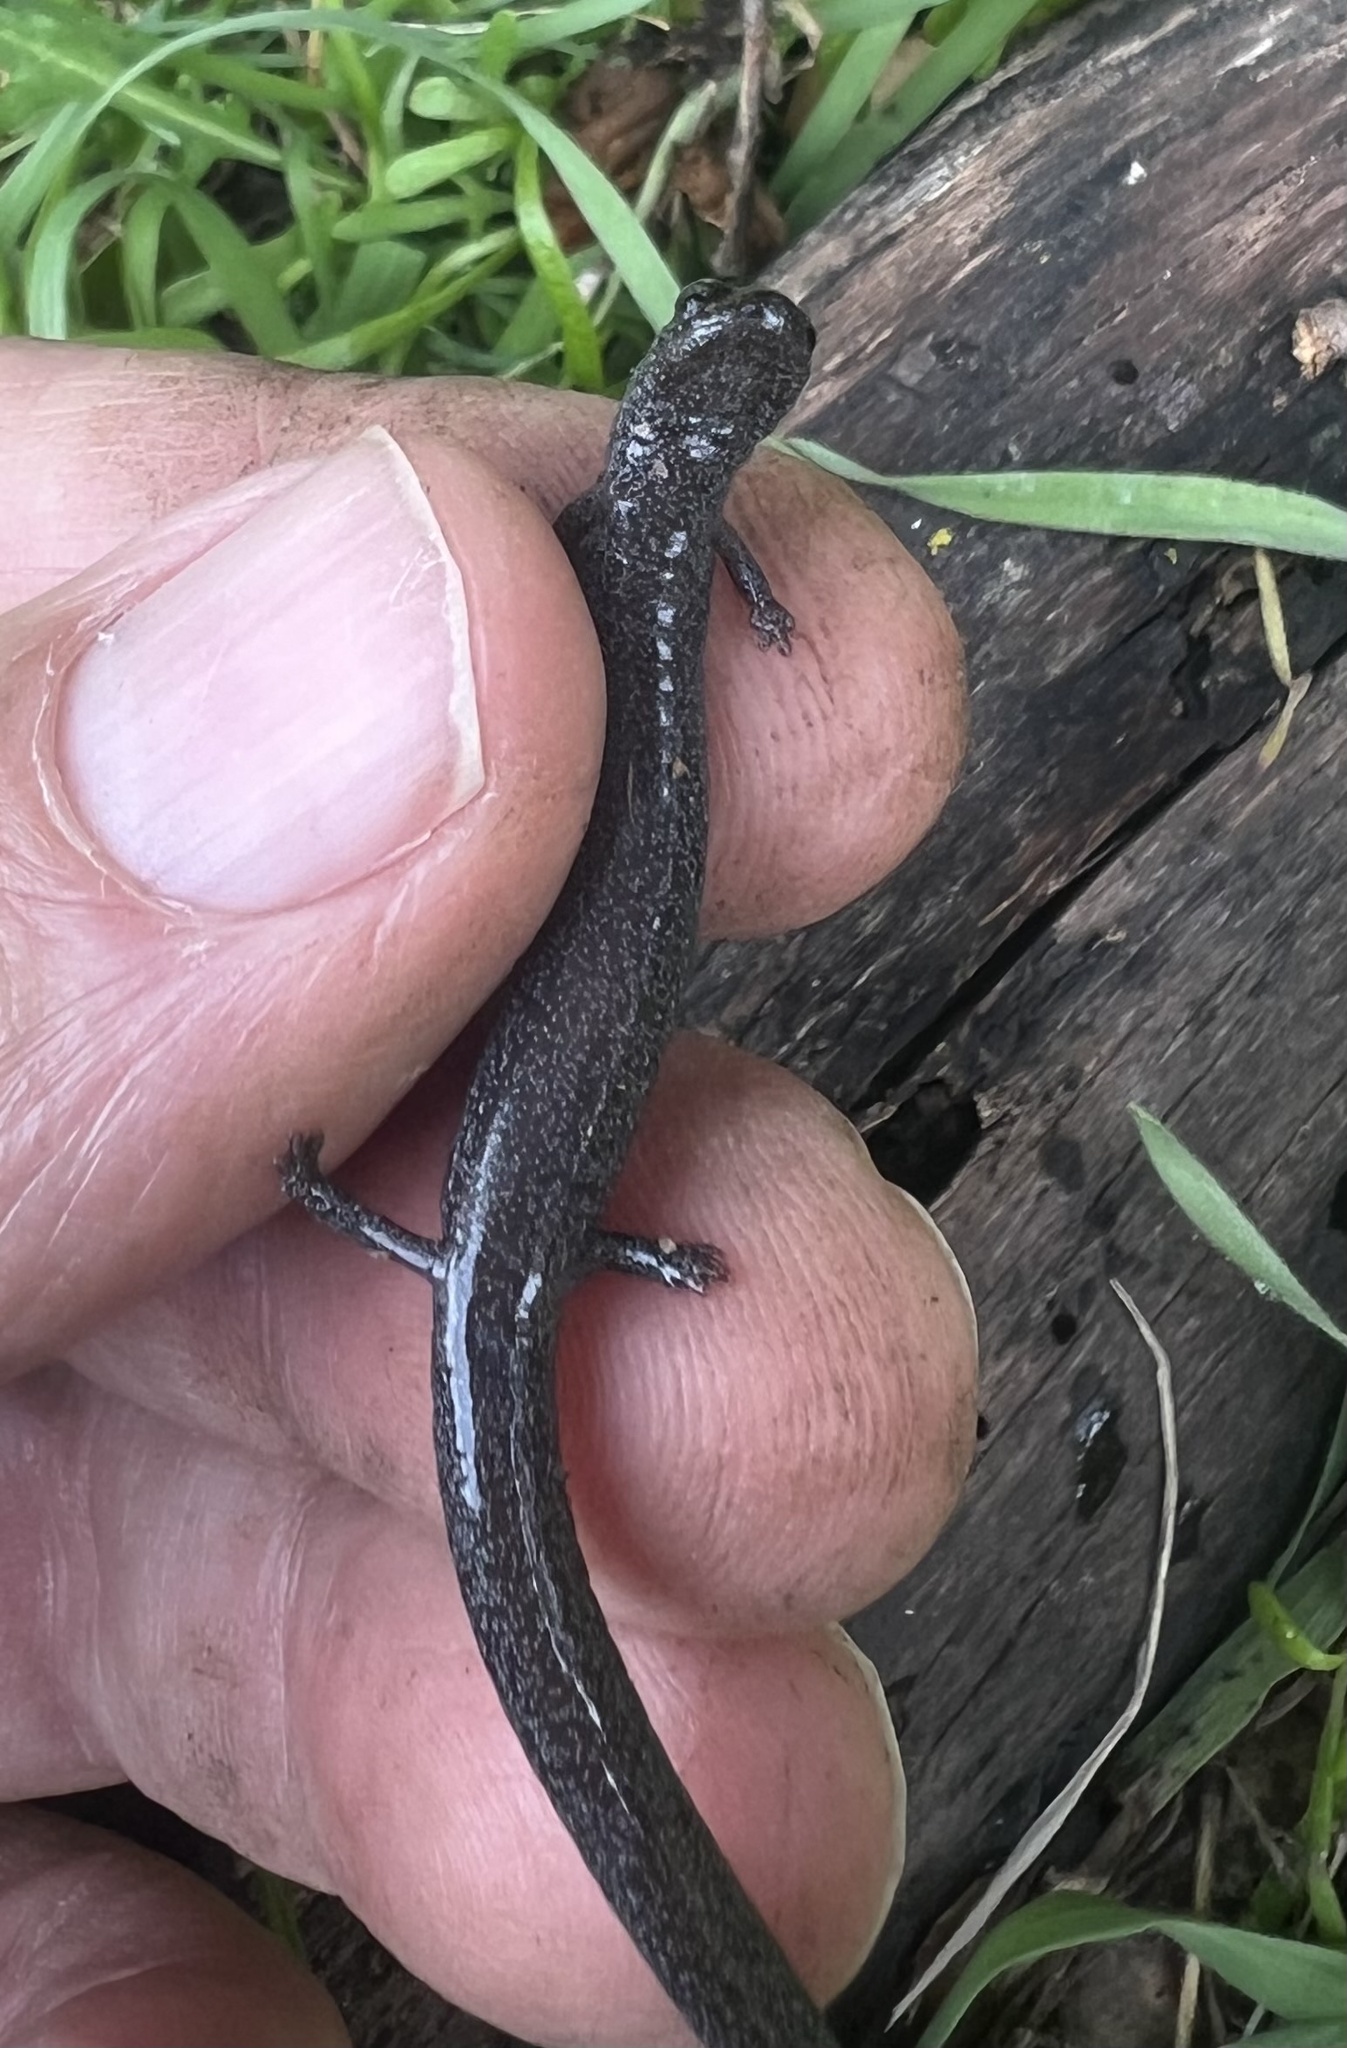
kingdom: Animalia
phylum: Chordata
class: Amphibia
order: Caudata
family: Plethodontidae
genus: Batrachoseps
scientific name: Batrachoseps stebbinsi
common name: Tehachapi slender salamander
